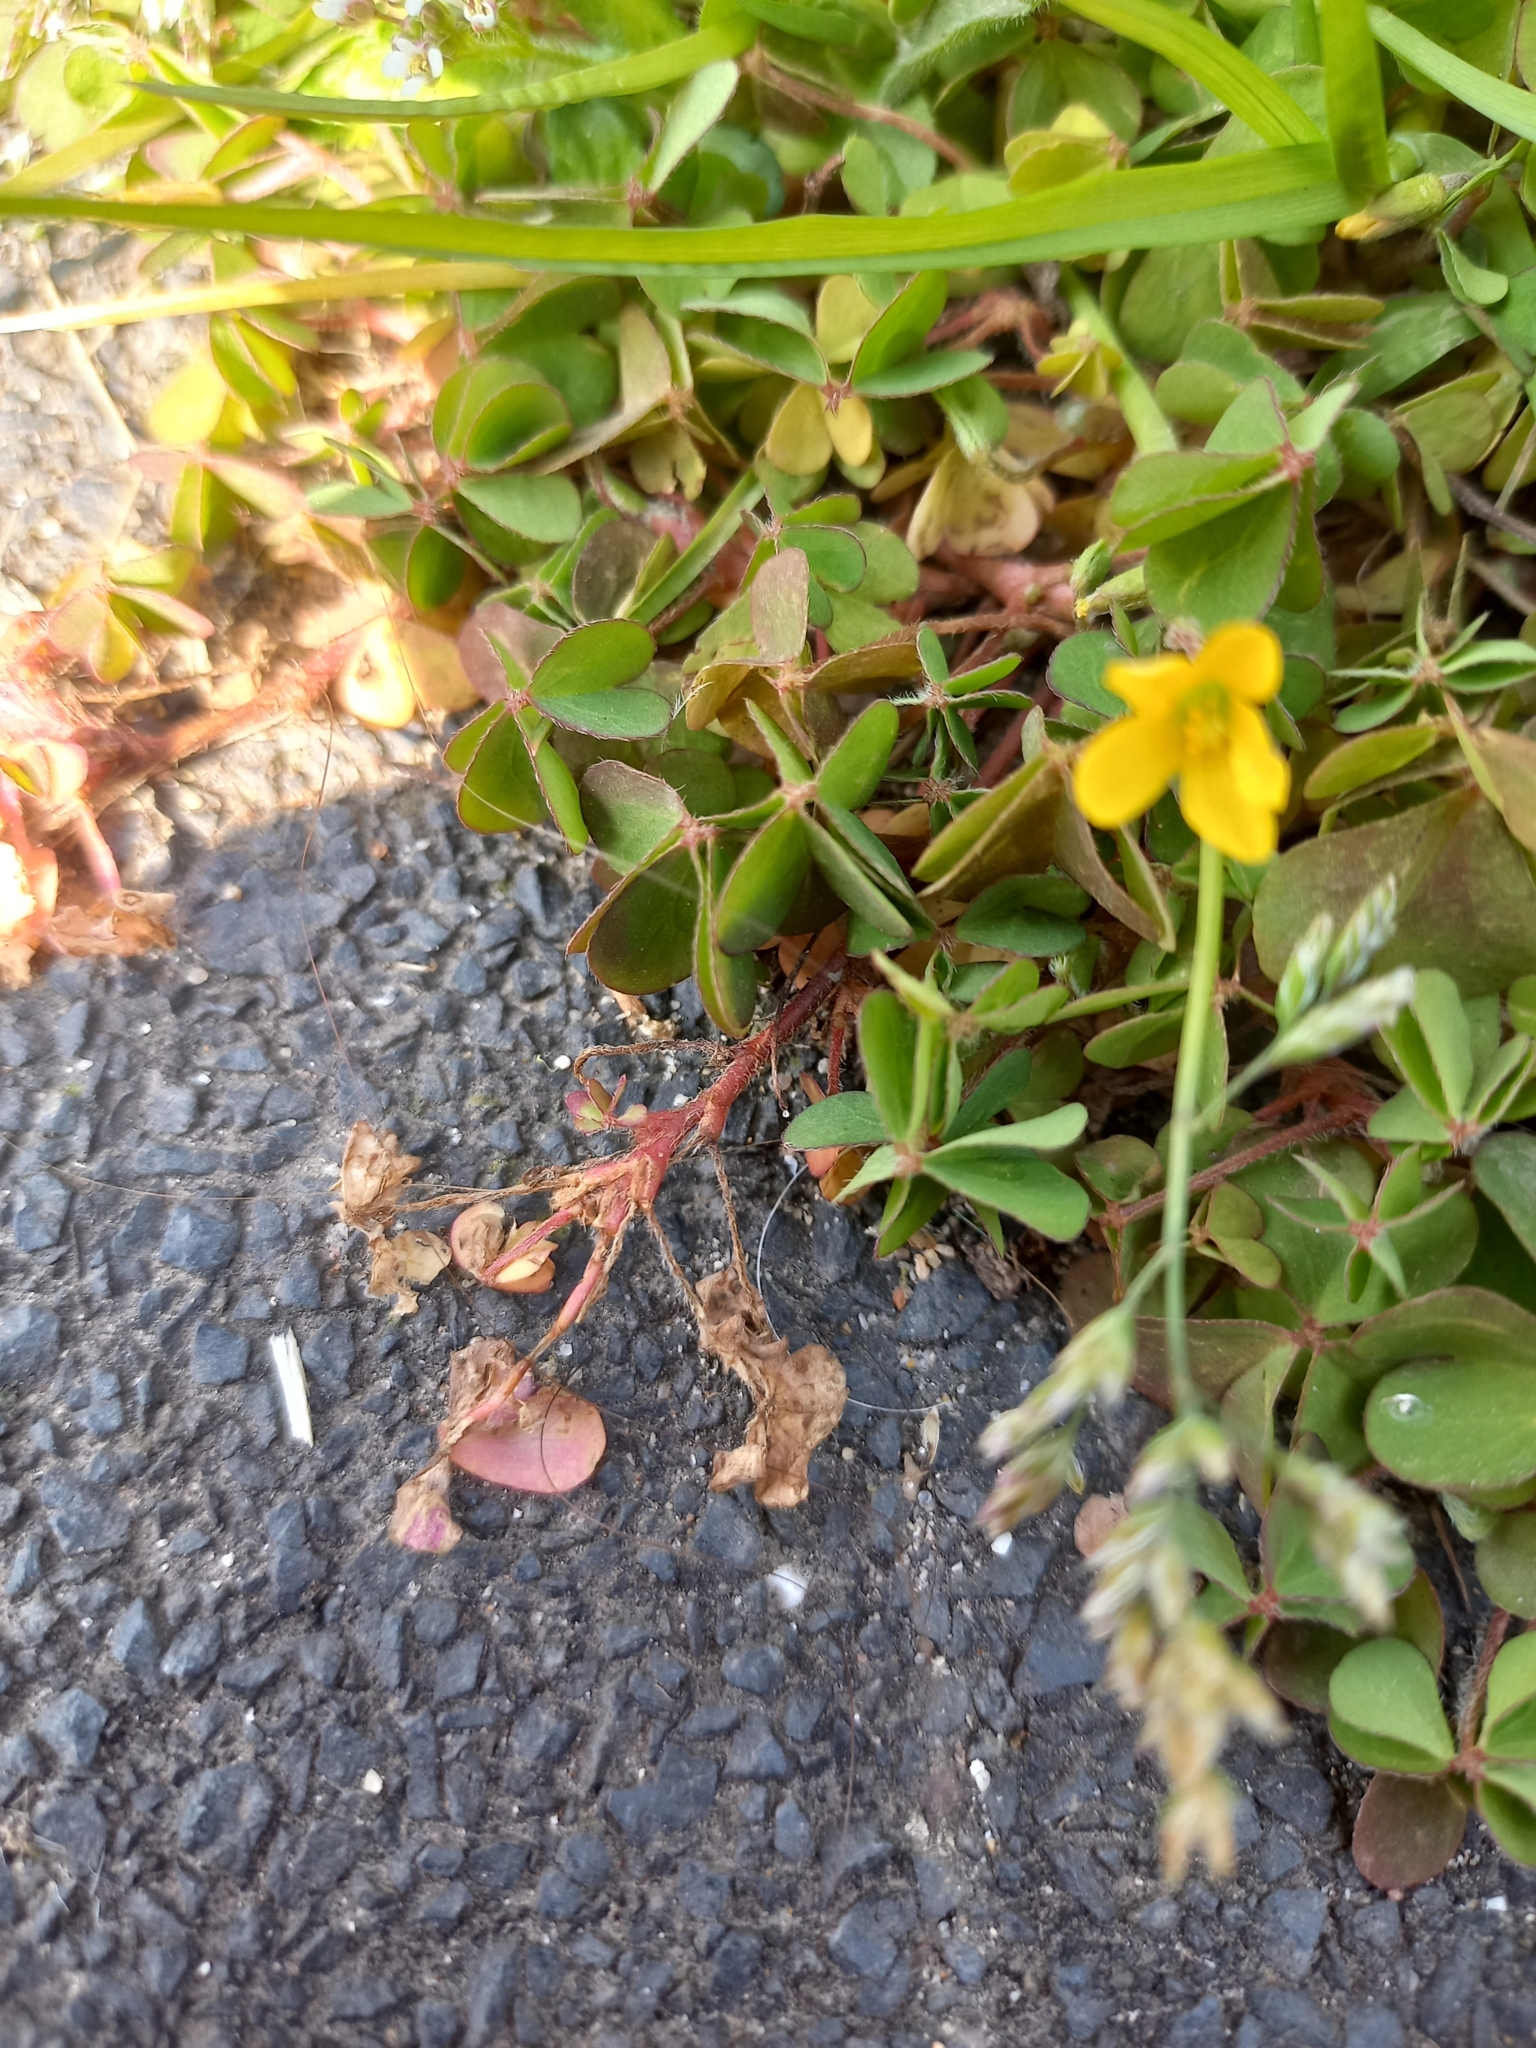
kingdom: Plantae
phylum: Tracheophyta
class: Magnoliopsida
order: Oxalidales
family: Oxalidaceae
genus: Oxalis
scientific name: Oxalis corniculata
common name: Procumbent yellow-sorrel
